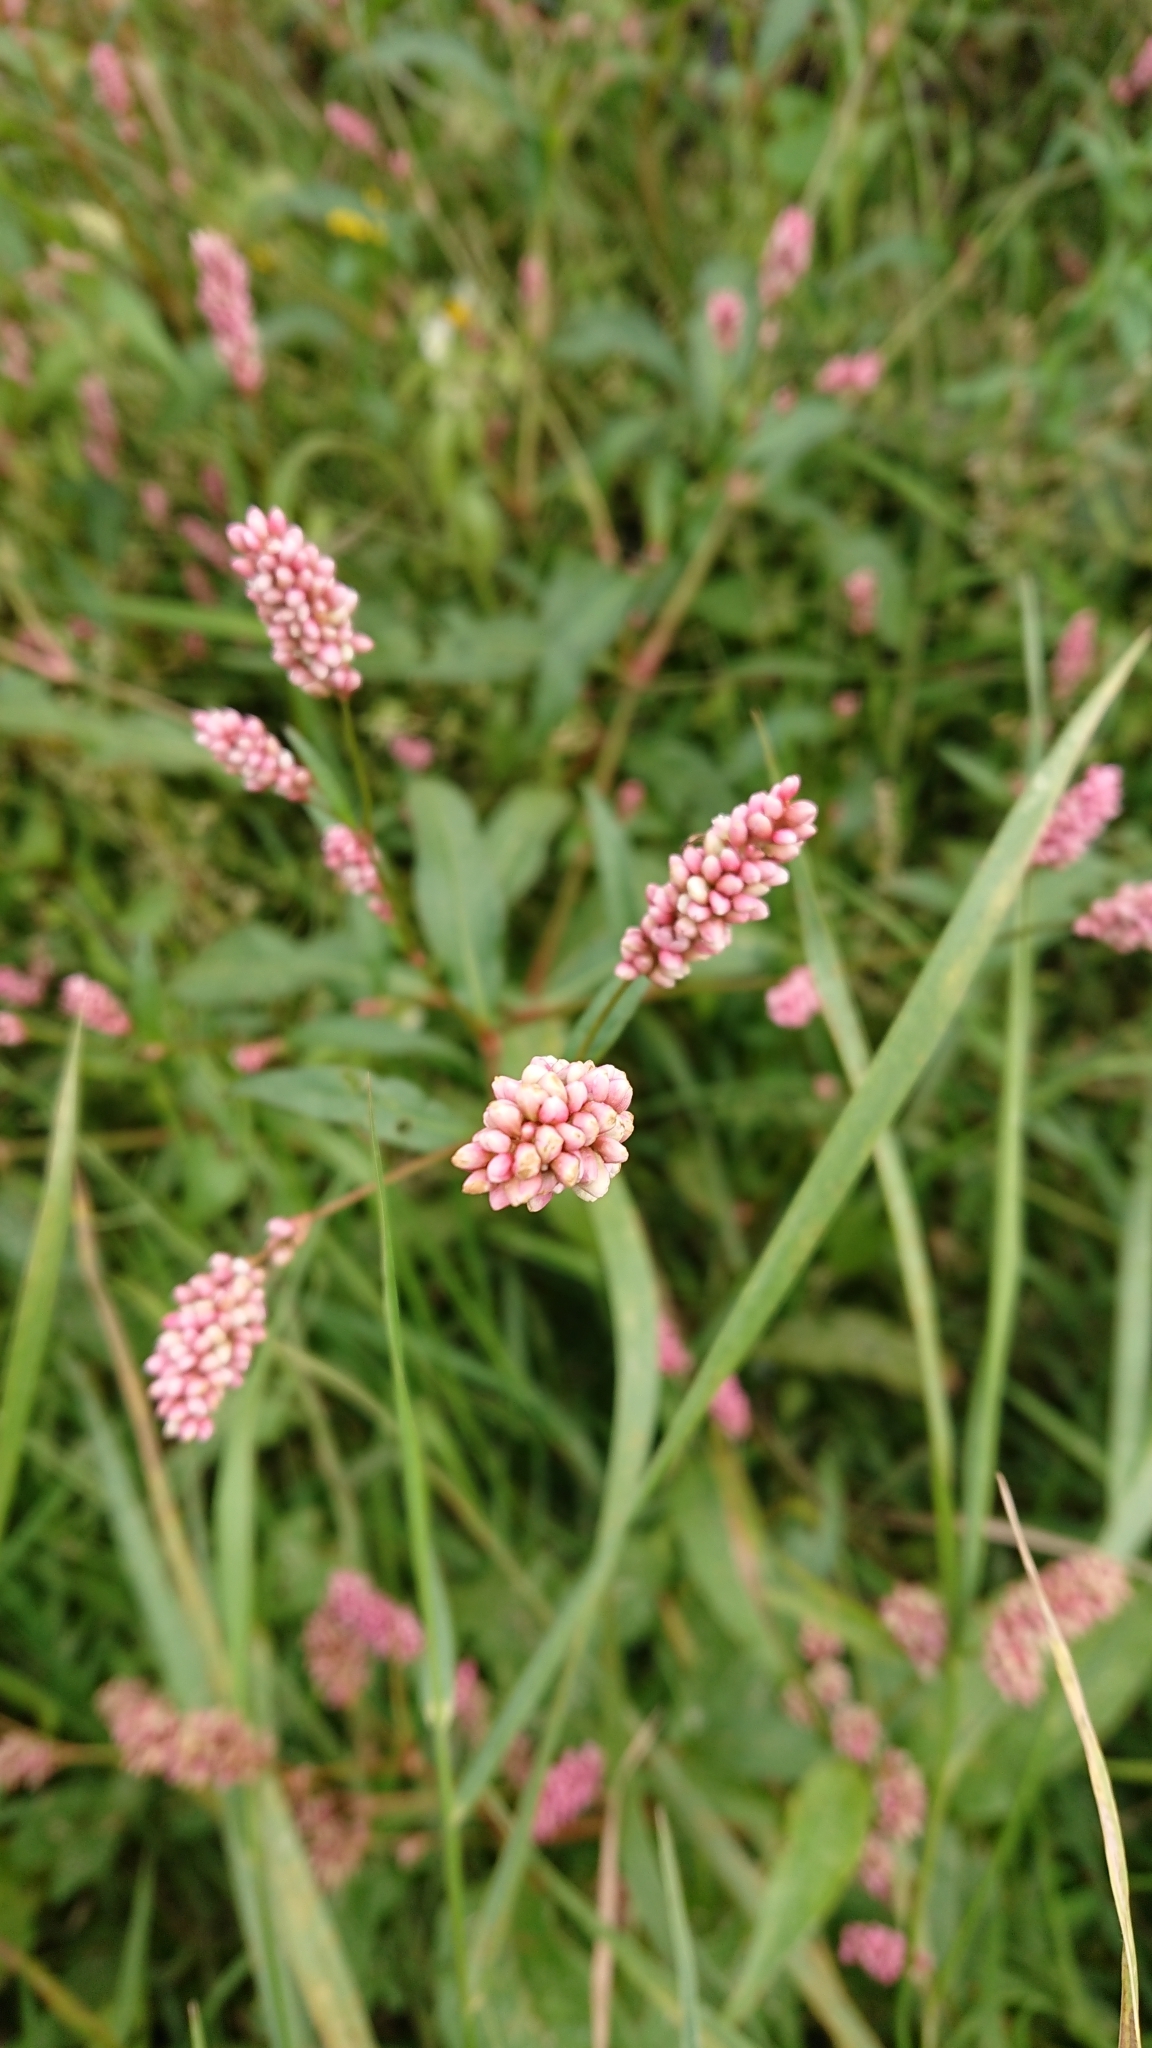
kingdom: Plantae
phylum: Tracheophyta
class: Magnoliopsida
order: Caryophyllales
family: Polygonaceae
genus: Persicaria
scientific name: Persicaria maculosa
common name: Redshank
